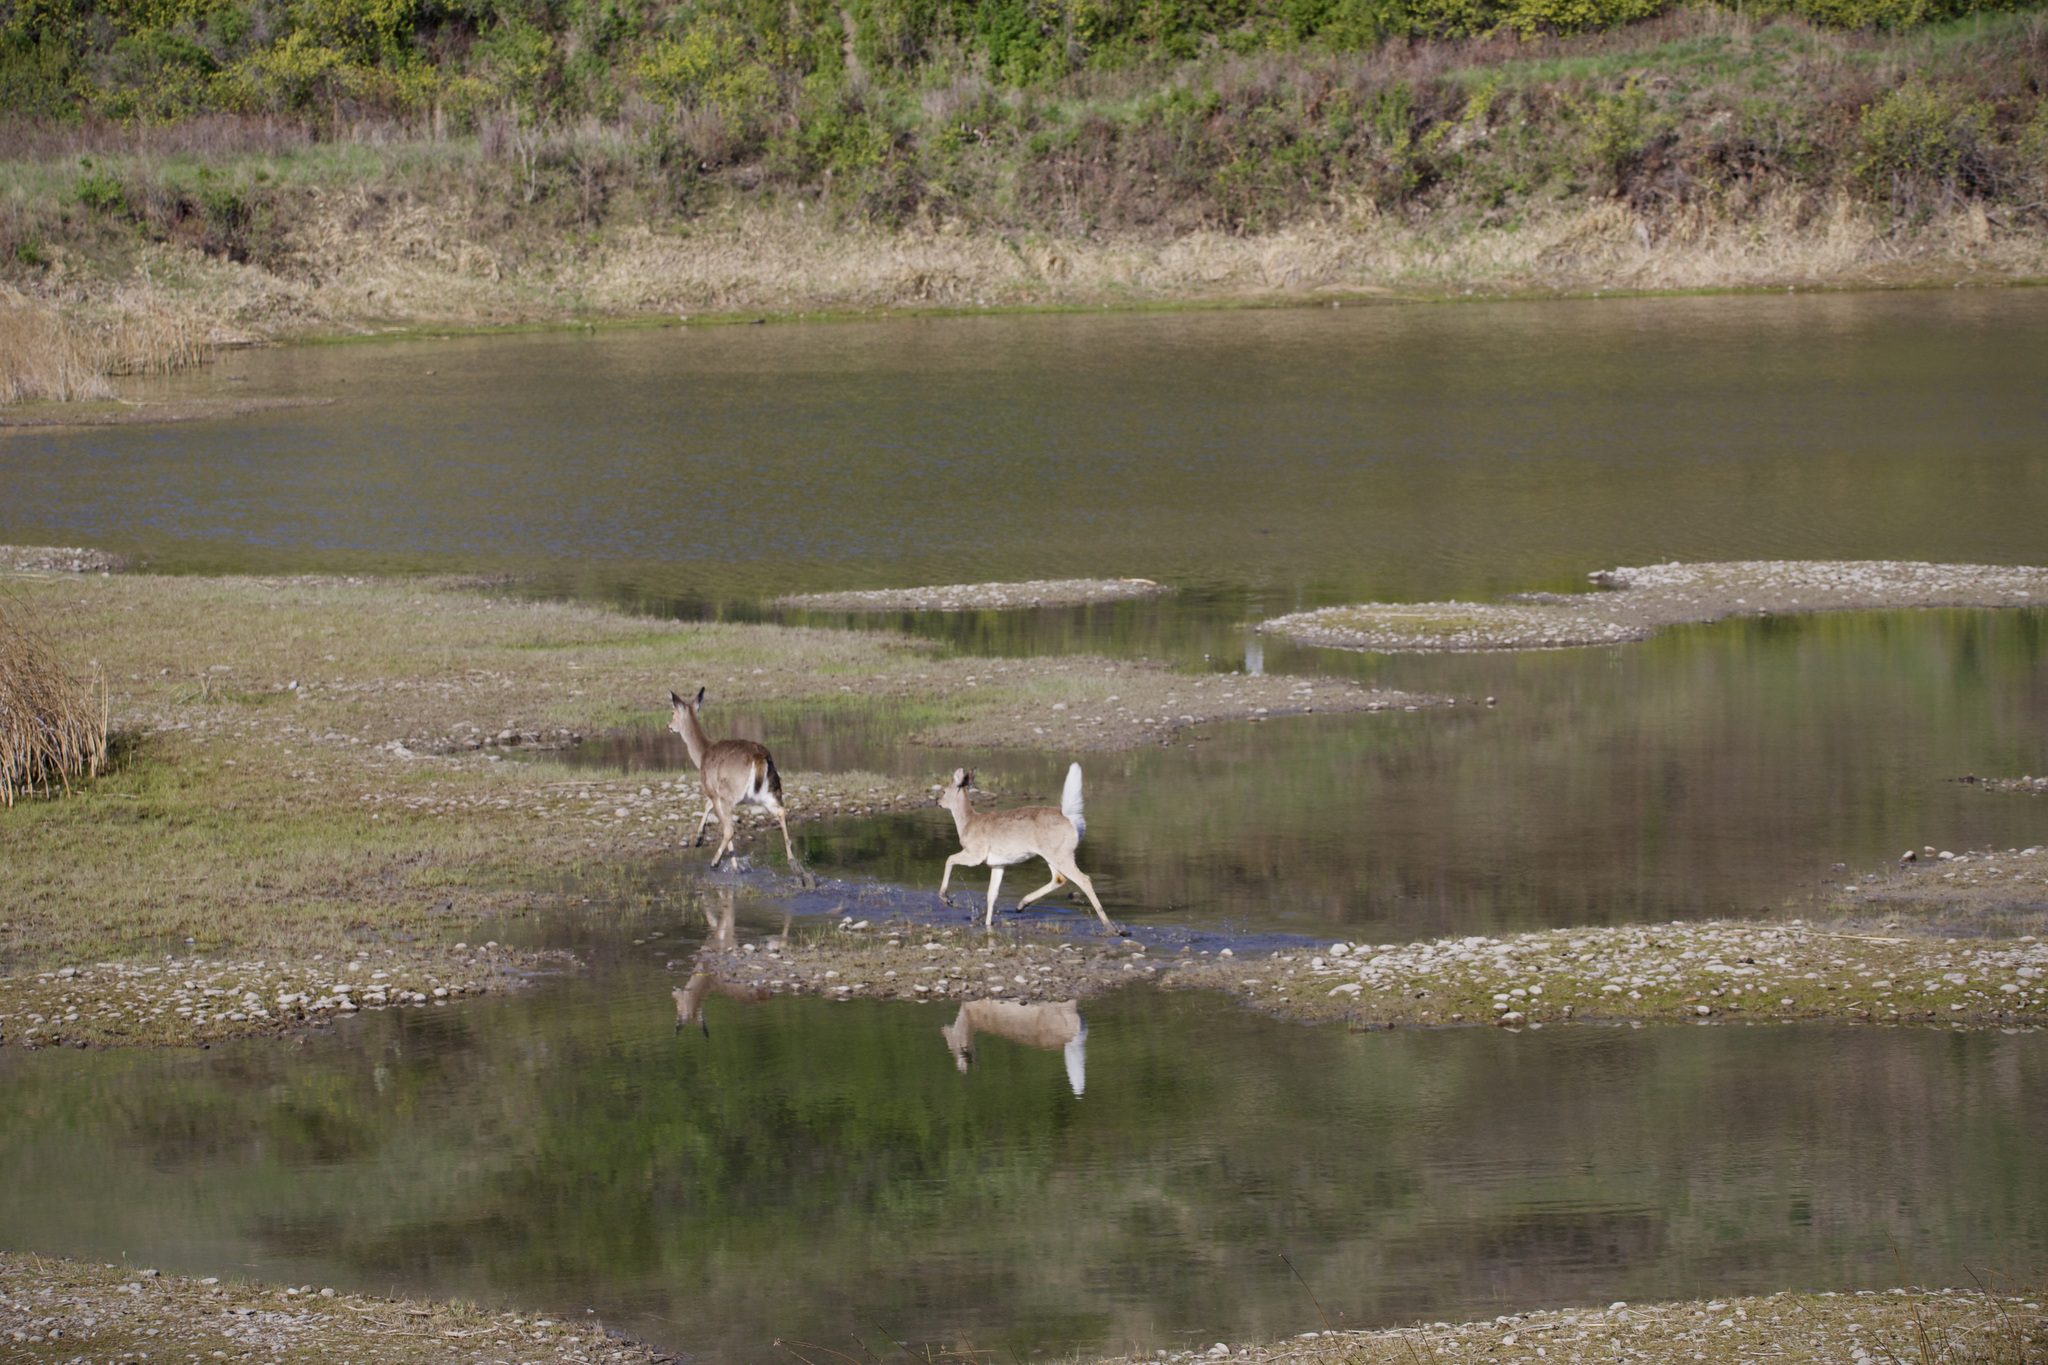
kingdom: Animalia
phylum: Chordata
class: Mammalia
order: Artiodactyla
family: Cervidae
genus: Odocoileus
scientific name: Odocoileus virginianus
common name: White-tailed deer
